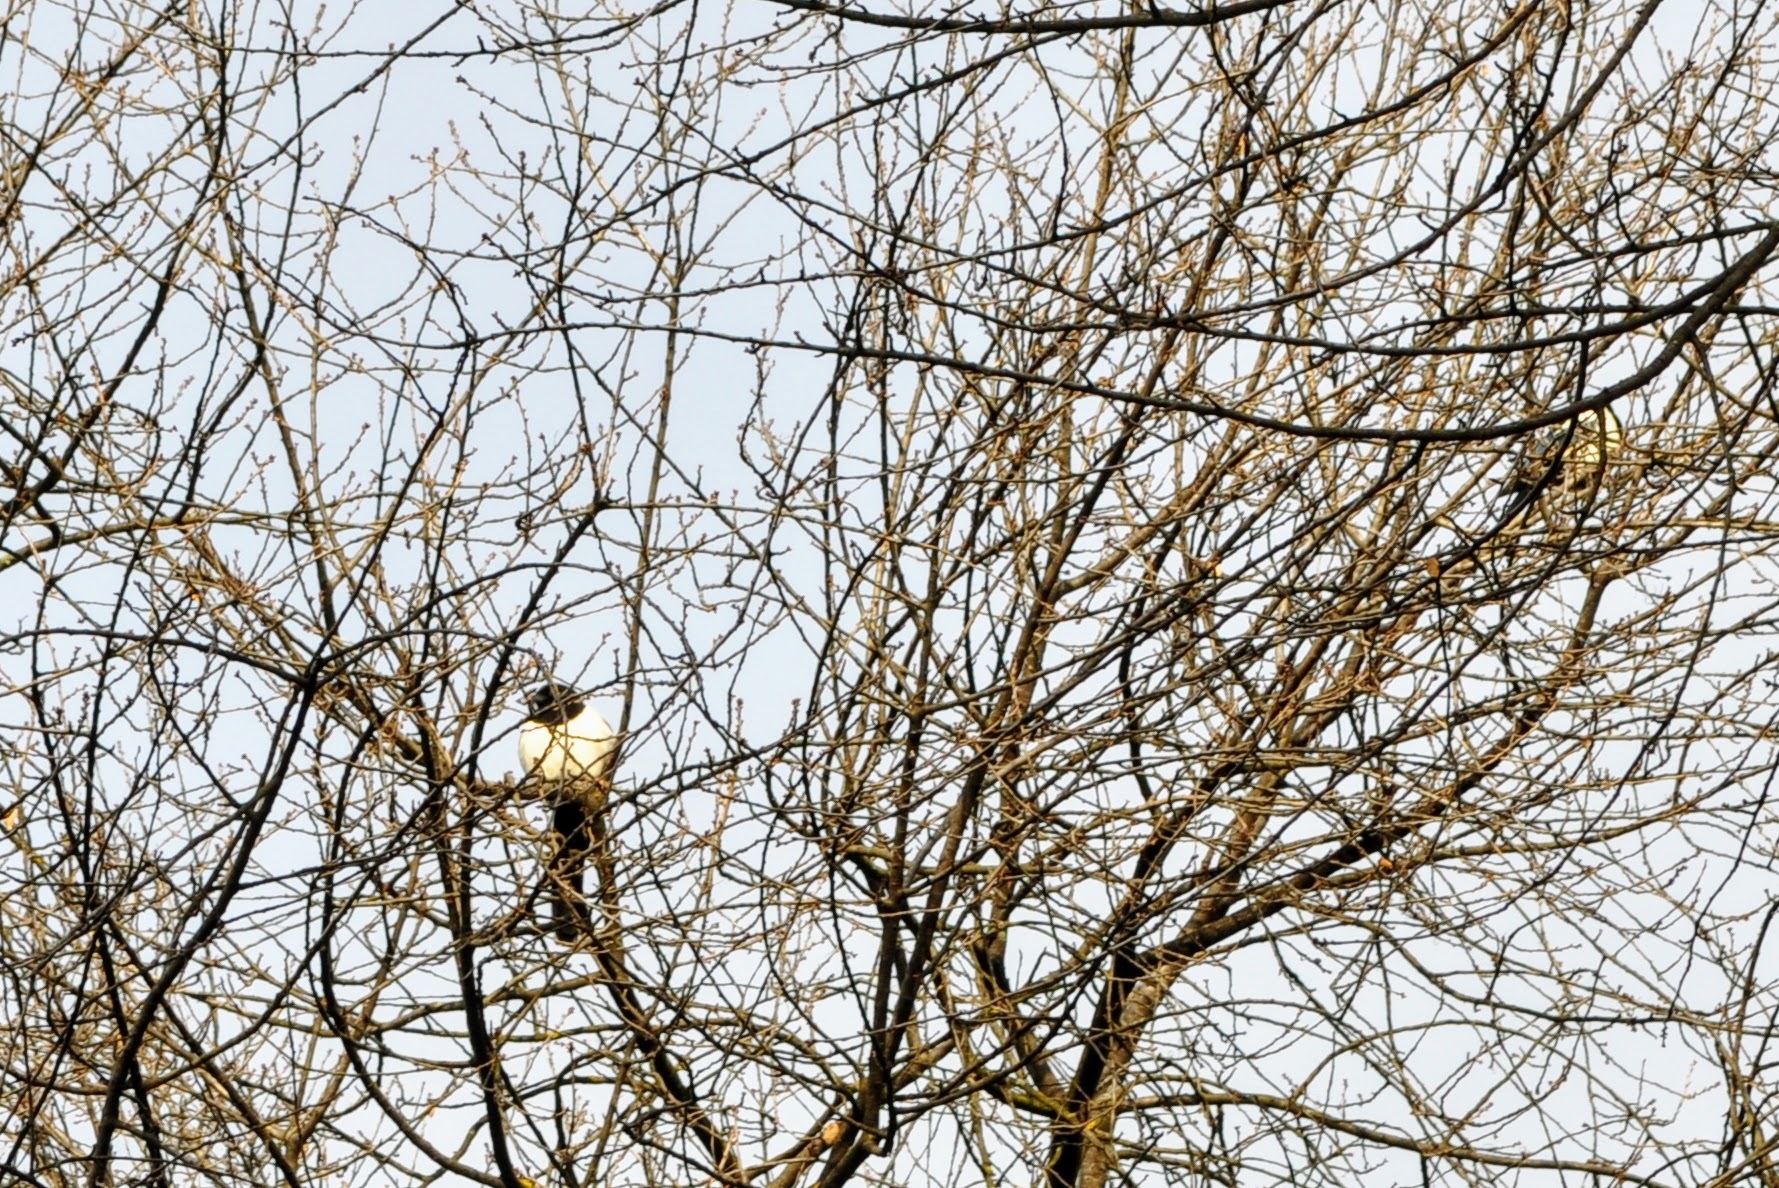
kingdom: Animalia
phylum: Chordata
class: Aves
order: Passeriformes
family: Corvidae
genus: Pica
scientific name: Pica pica
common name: Eurasian magpie
